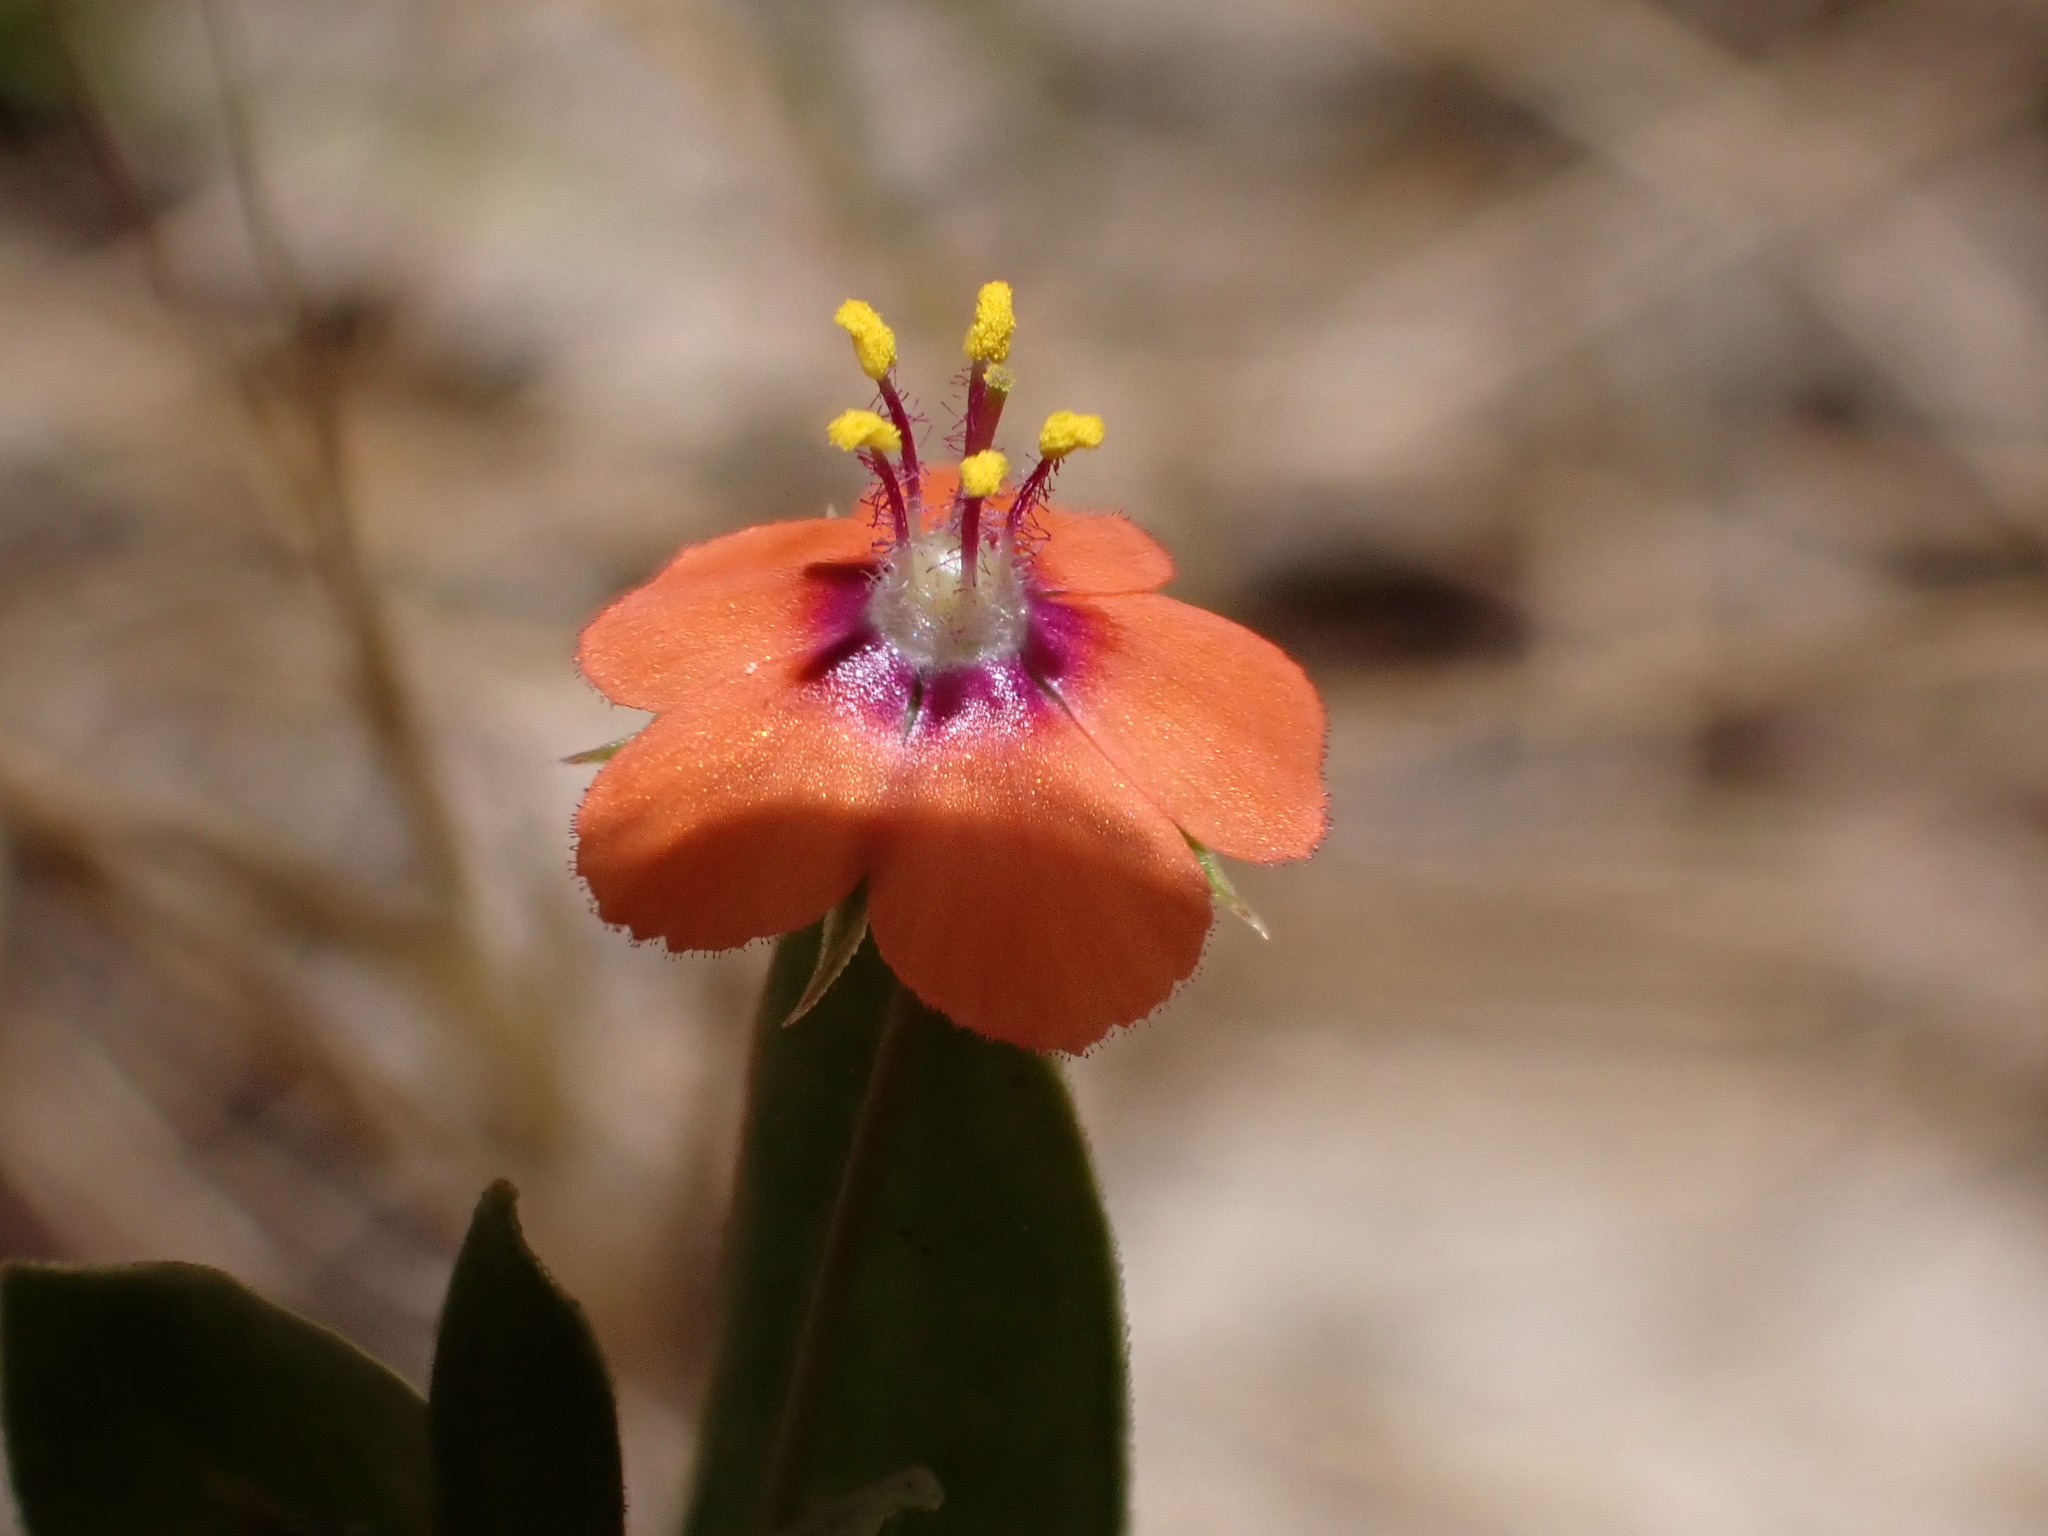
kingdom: Plantae
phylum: Tracheophyta
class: Magnoliopsida
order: Ericales
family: Primulaceae
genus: Lysimachia
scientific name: Lysimachia arvensis
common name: Scarlet pimpernel
